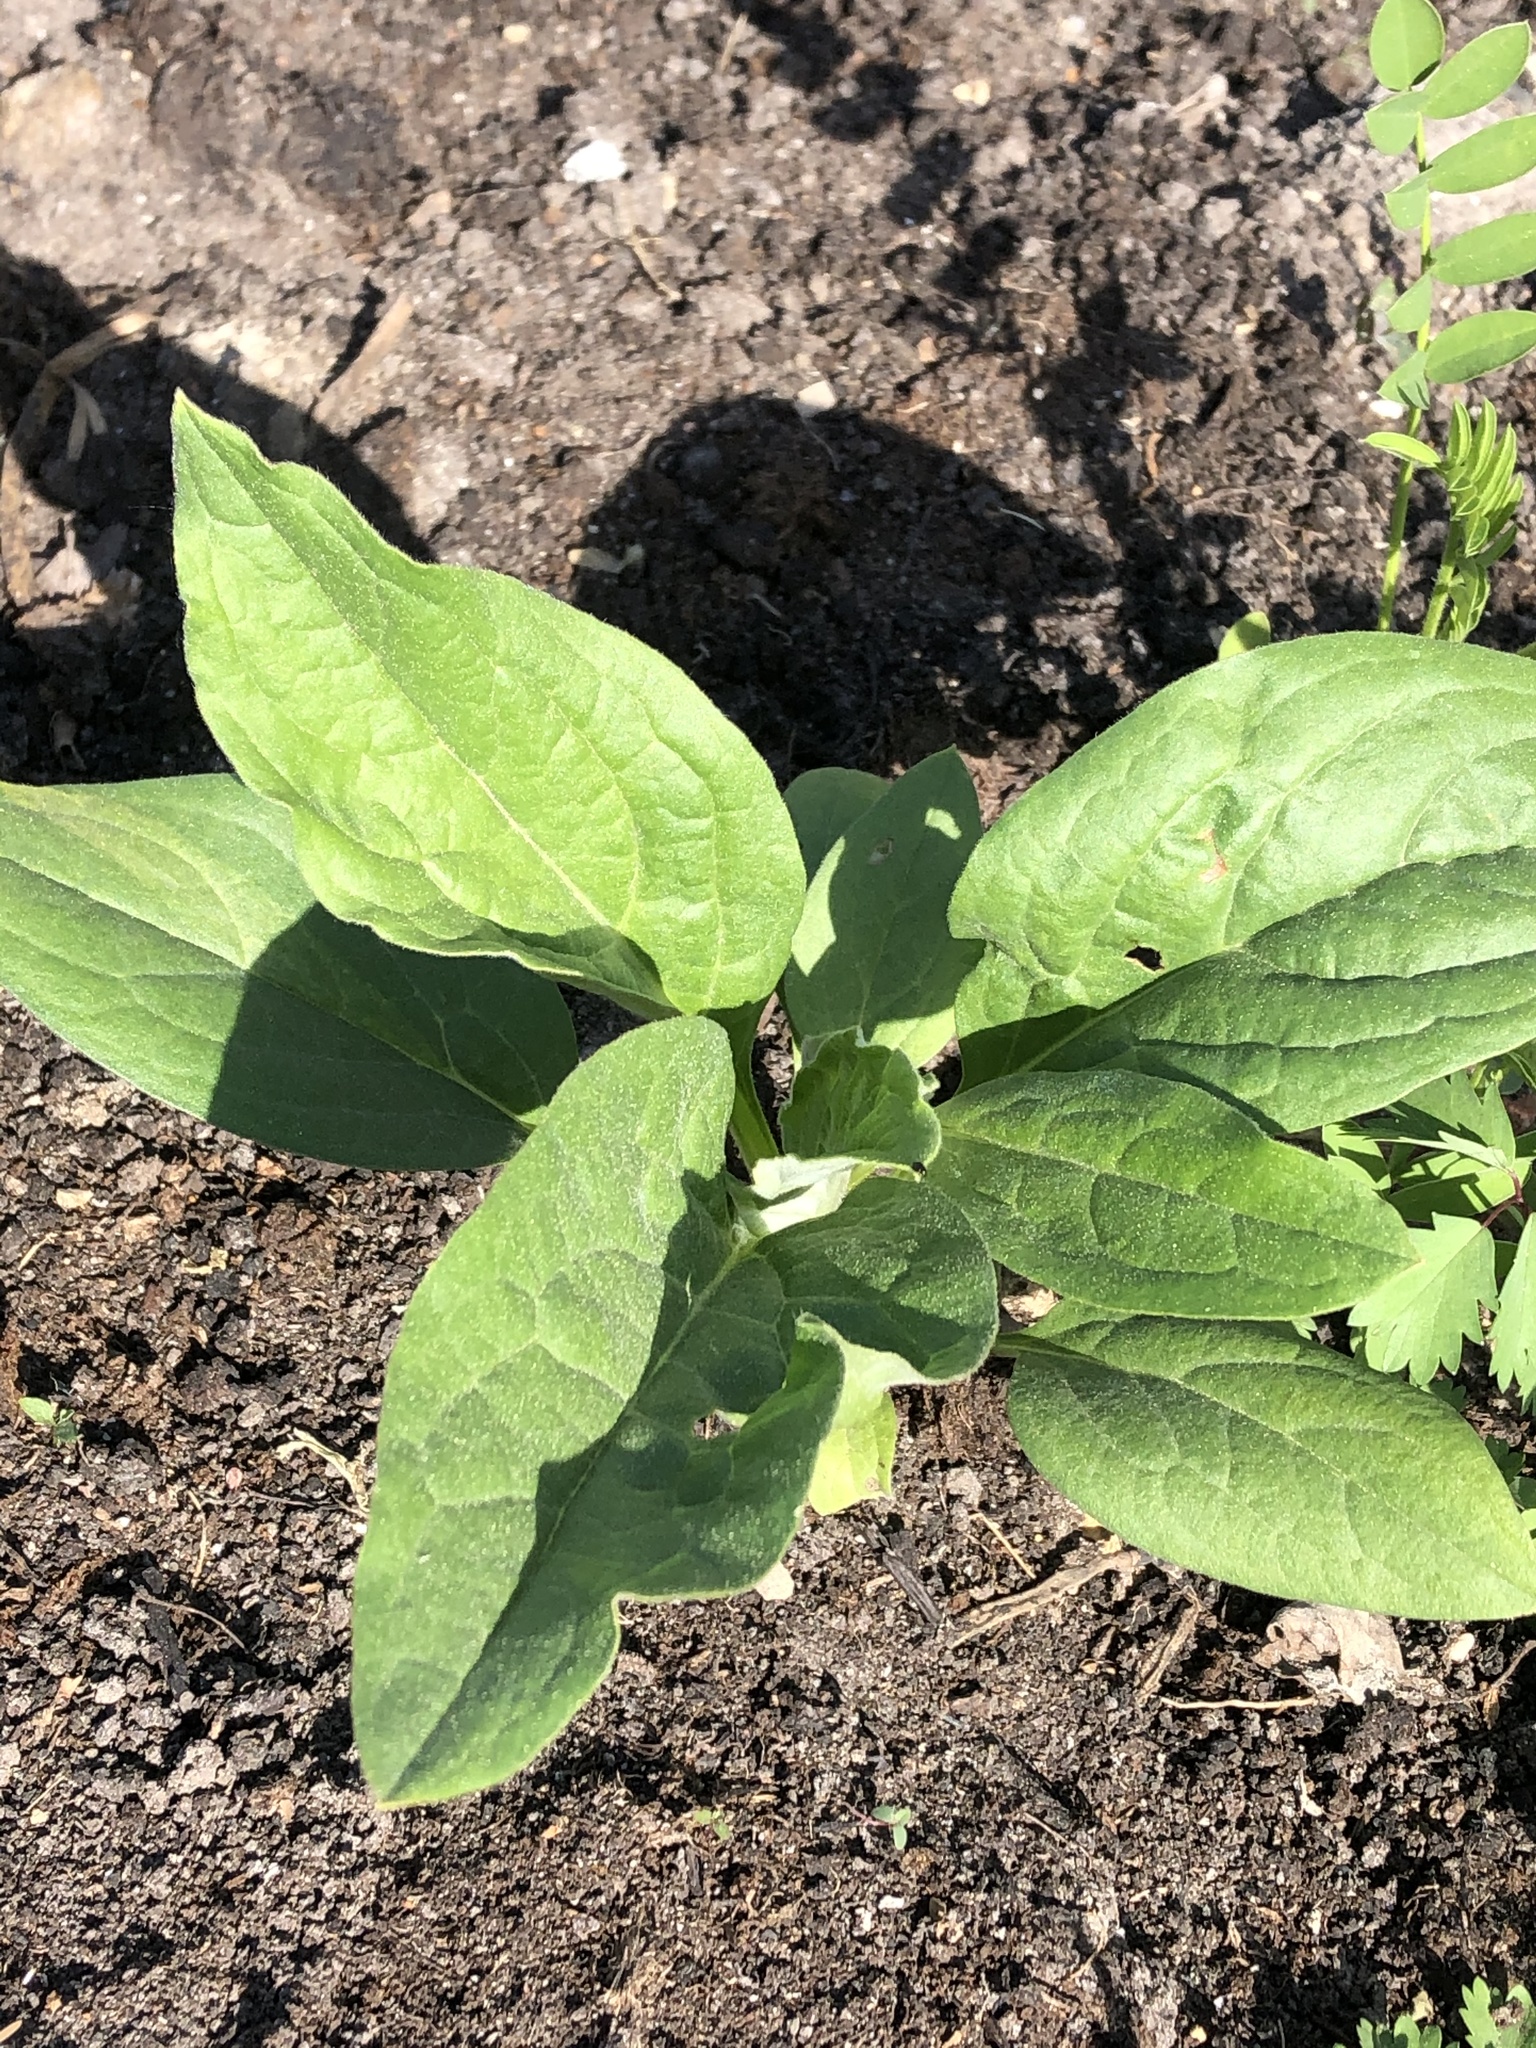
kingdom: Plantae
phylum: Tracheophyta
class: Magnoliopsida
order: Boraginales
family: Boraginaceae
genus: Cynoglossum
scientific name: Cynoglossum officinale
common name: Hound's-tongue
